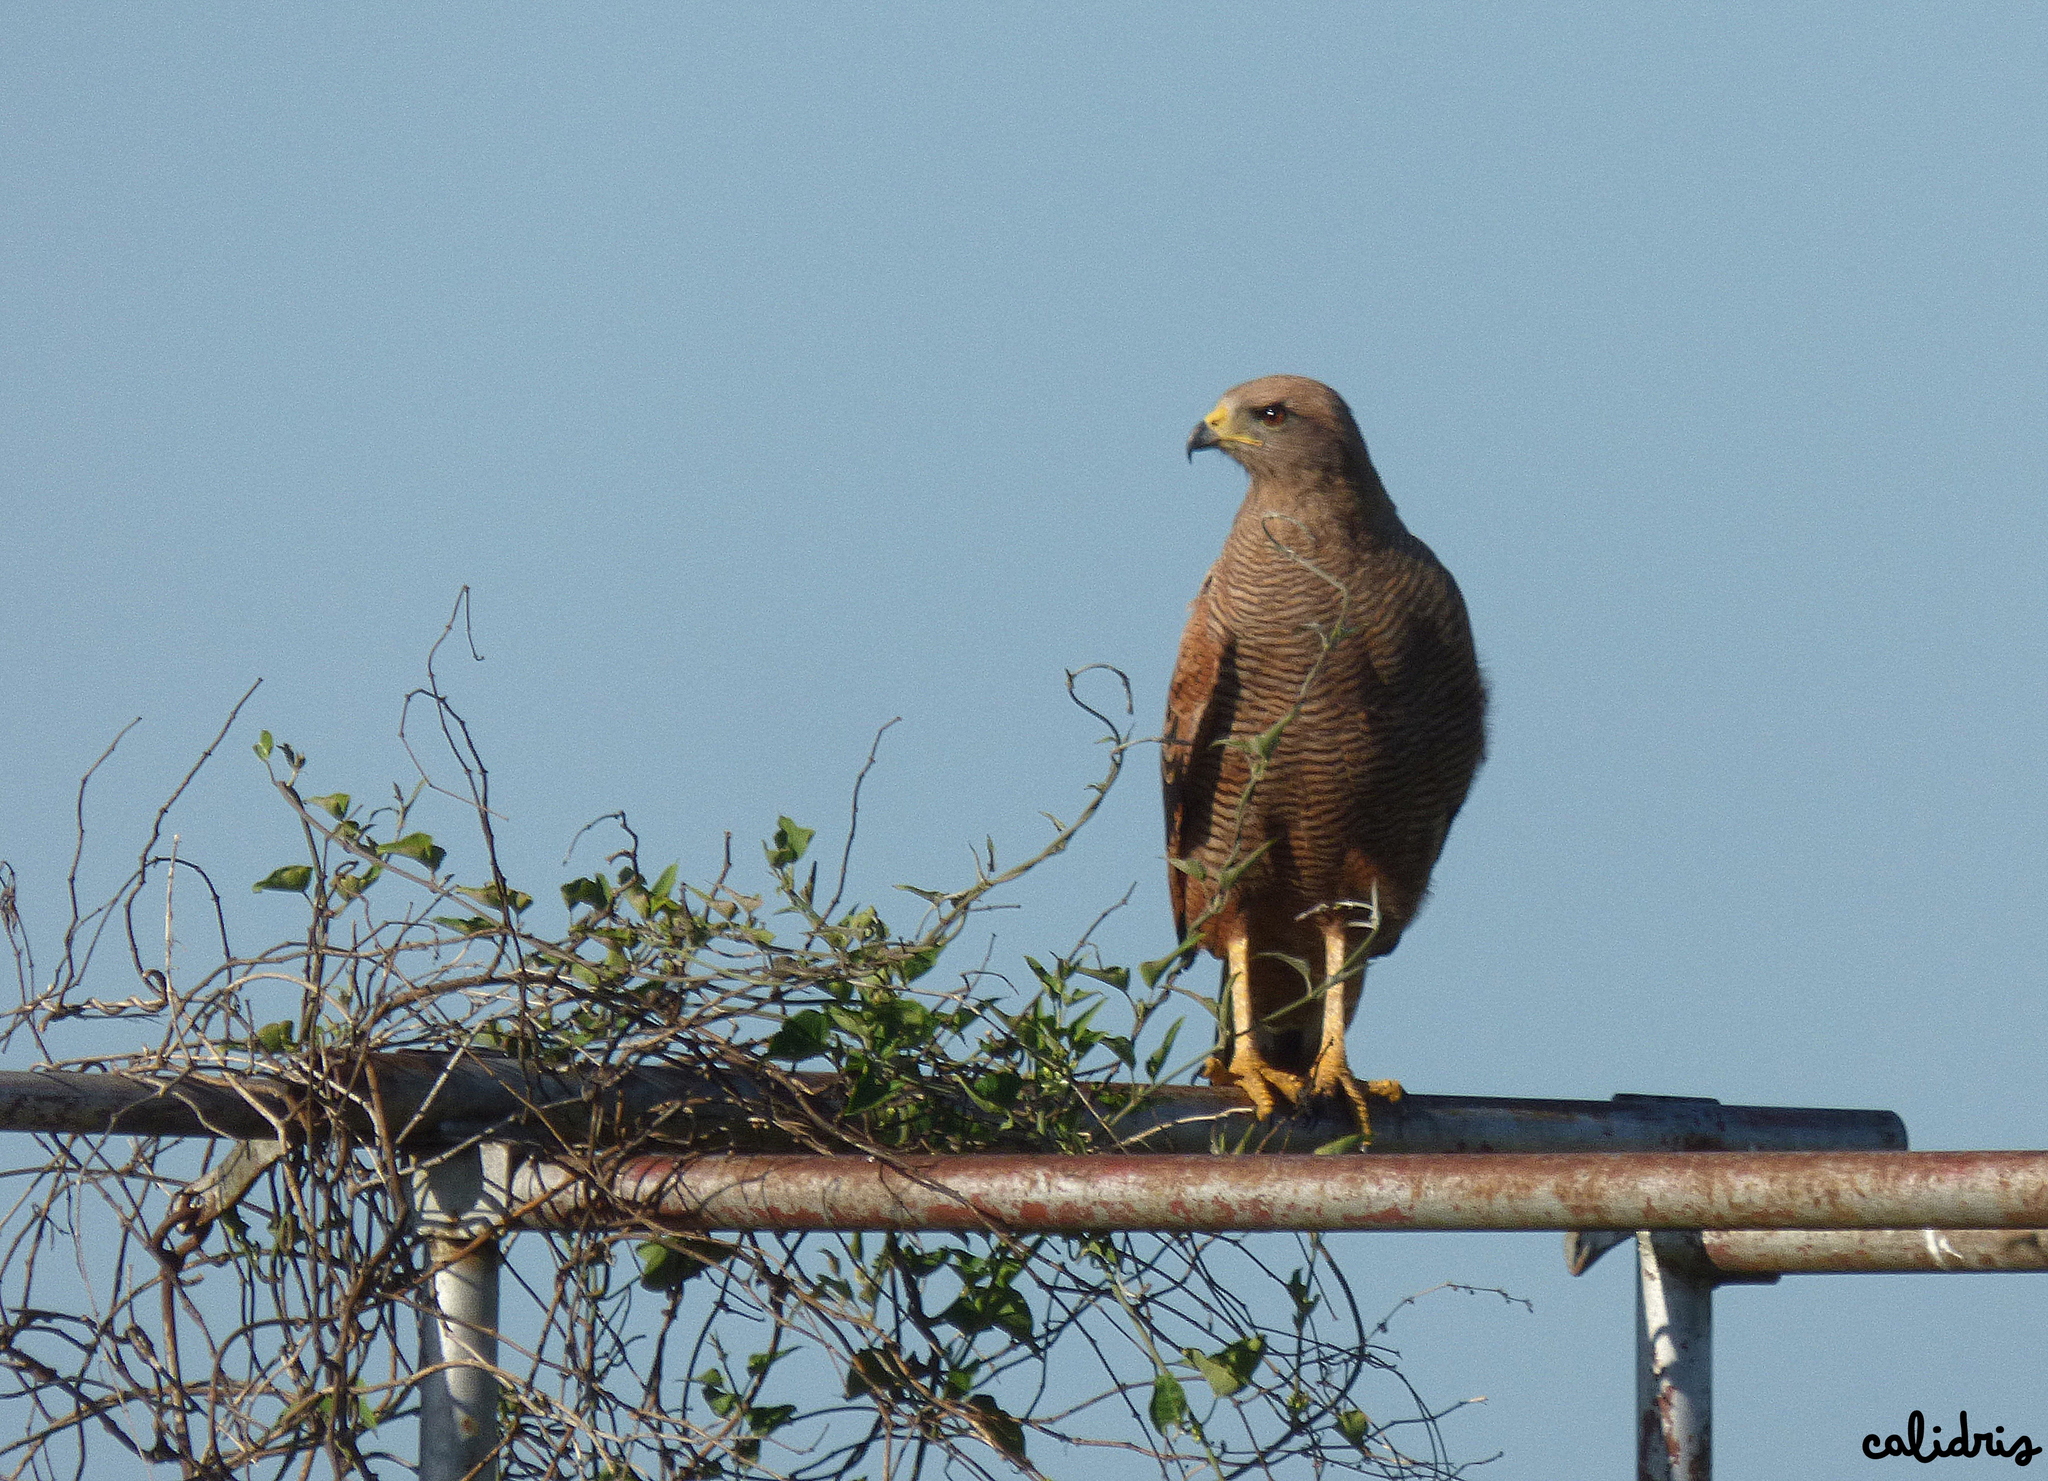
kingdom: Animalia
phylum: Chordata
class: Aves
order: Accipitriformes
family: Accipitridae
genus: Buteogallus
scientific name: Buteogallus meridionalis
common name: Savanna hawk
